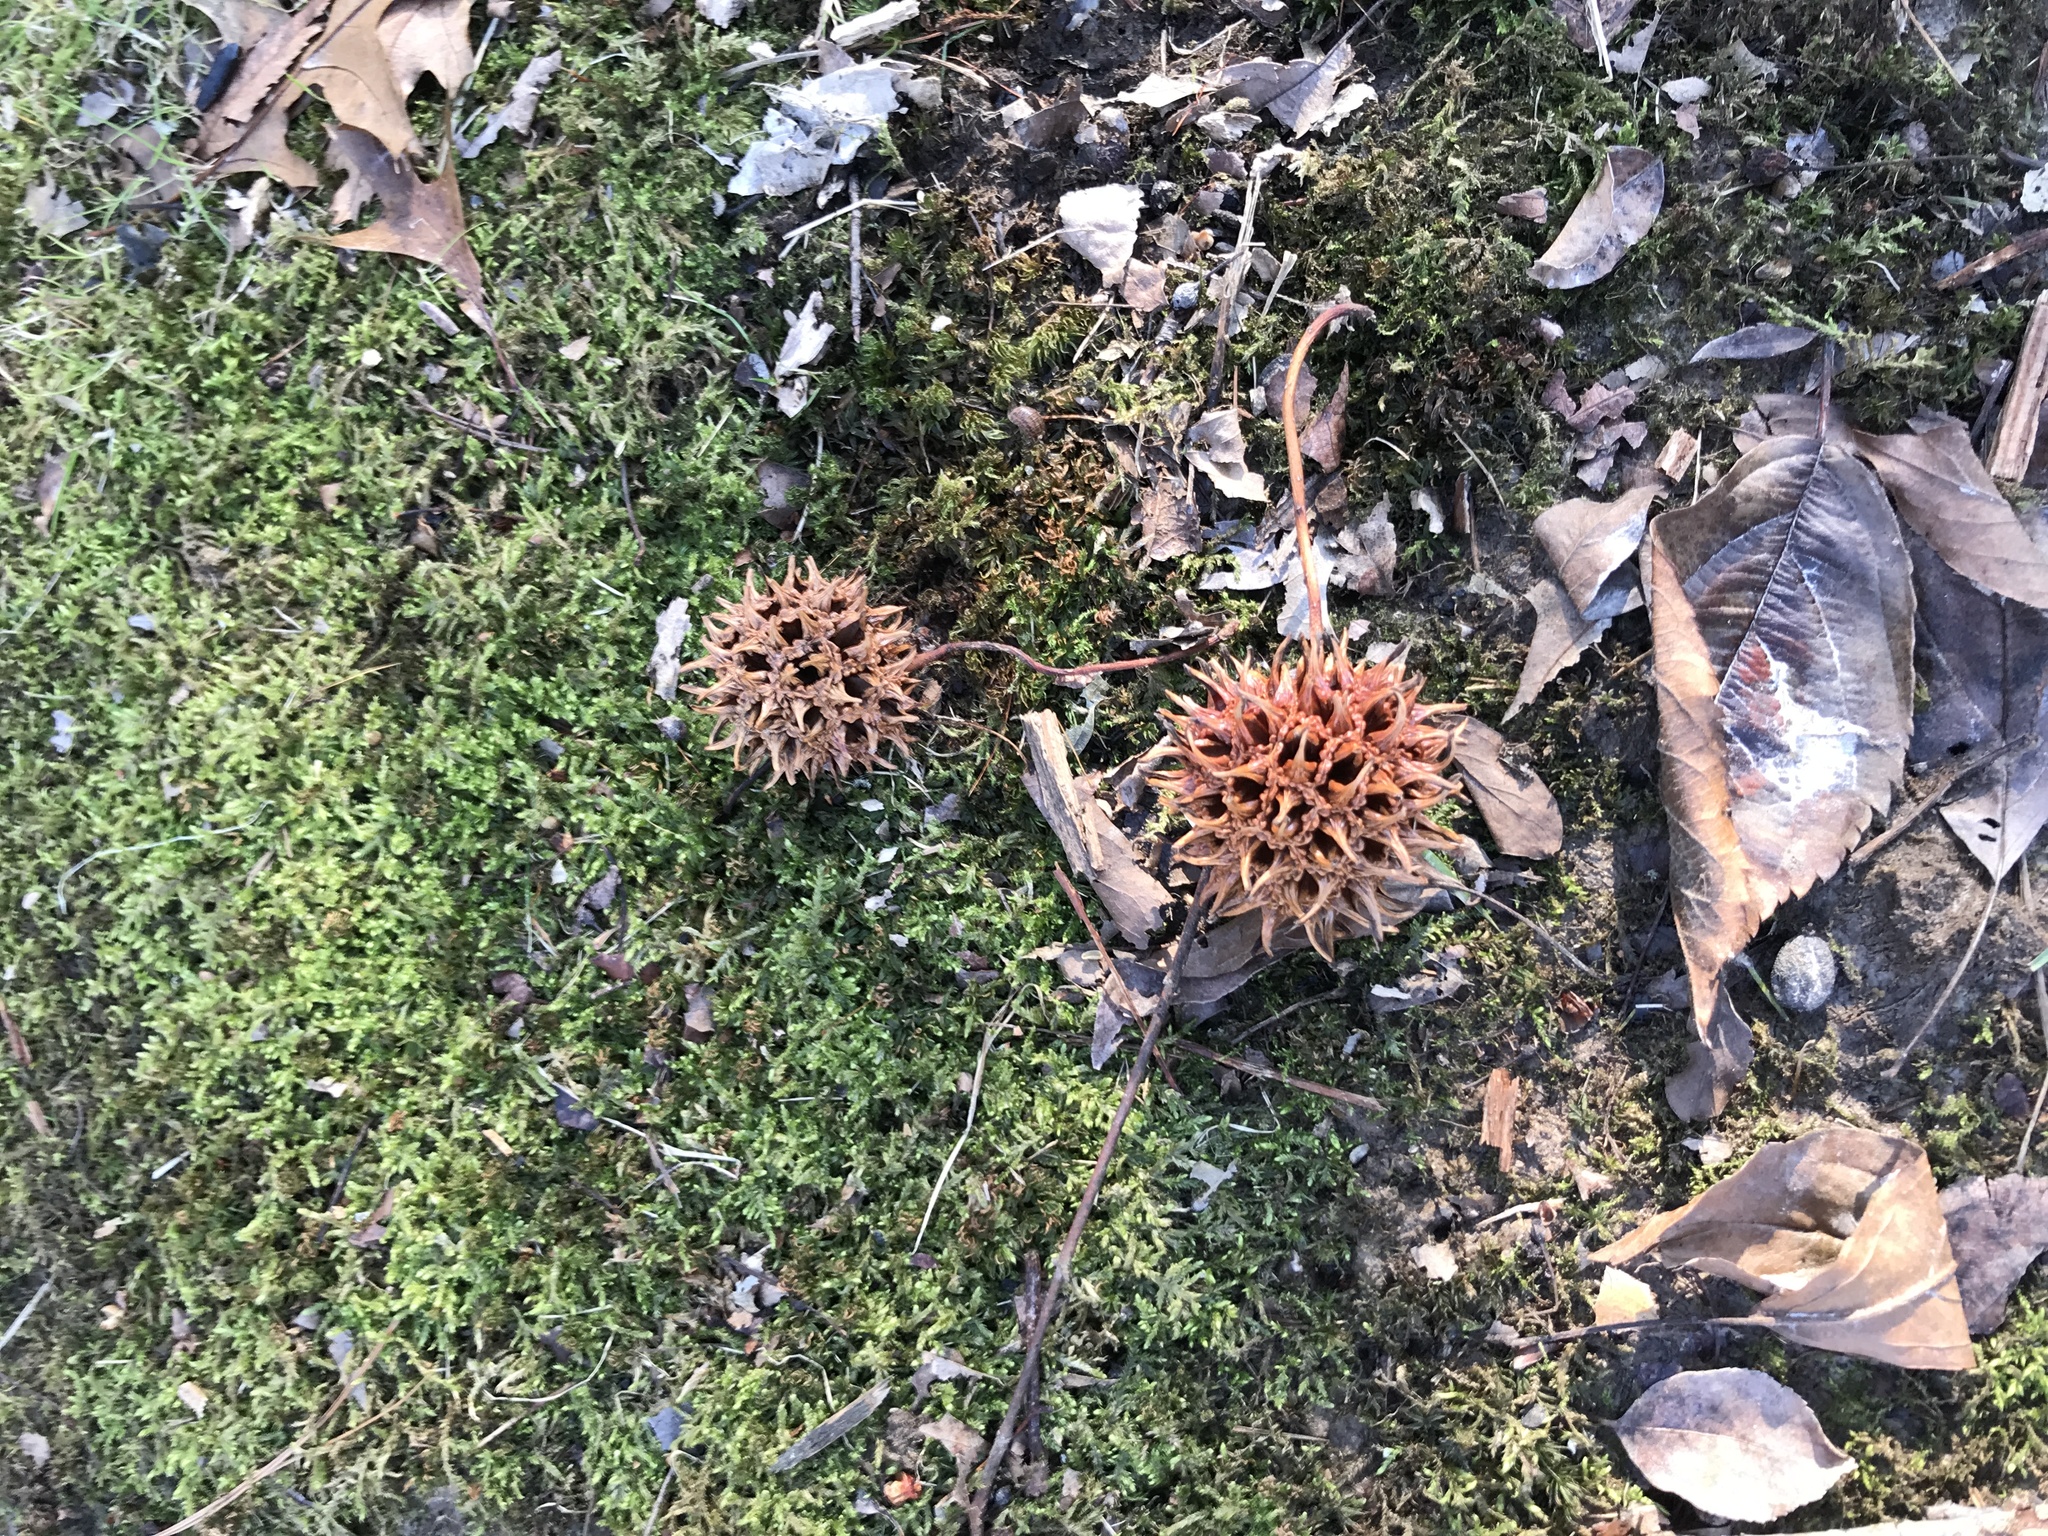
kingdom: Plantae
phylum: Tracheophyta
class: Magnoliopsida
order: Saxifragales
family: Altingiaceae
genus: Liquidambar
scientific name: Liquidambar styraciflua
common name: Sweet gum
